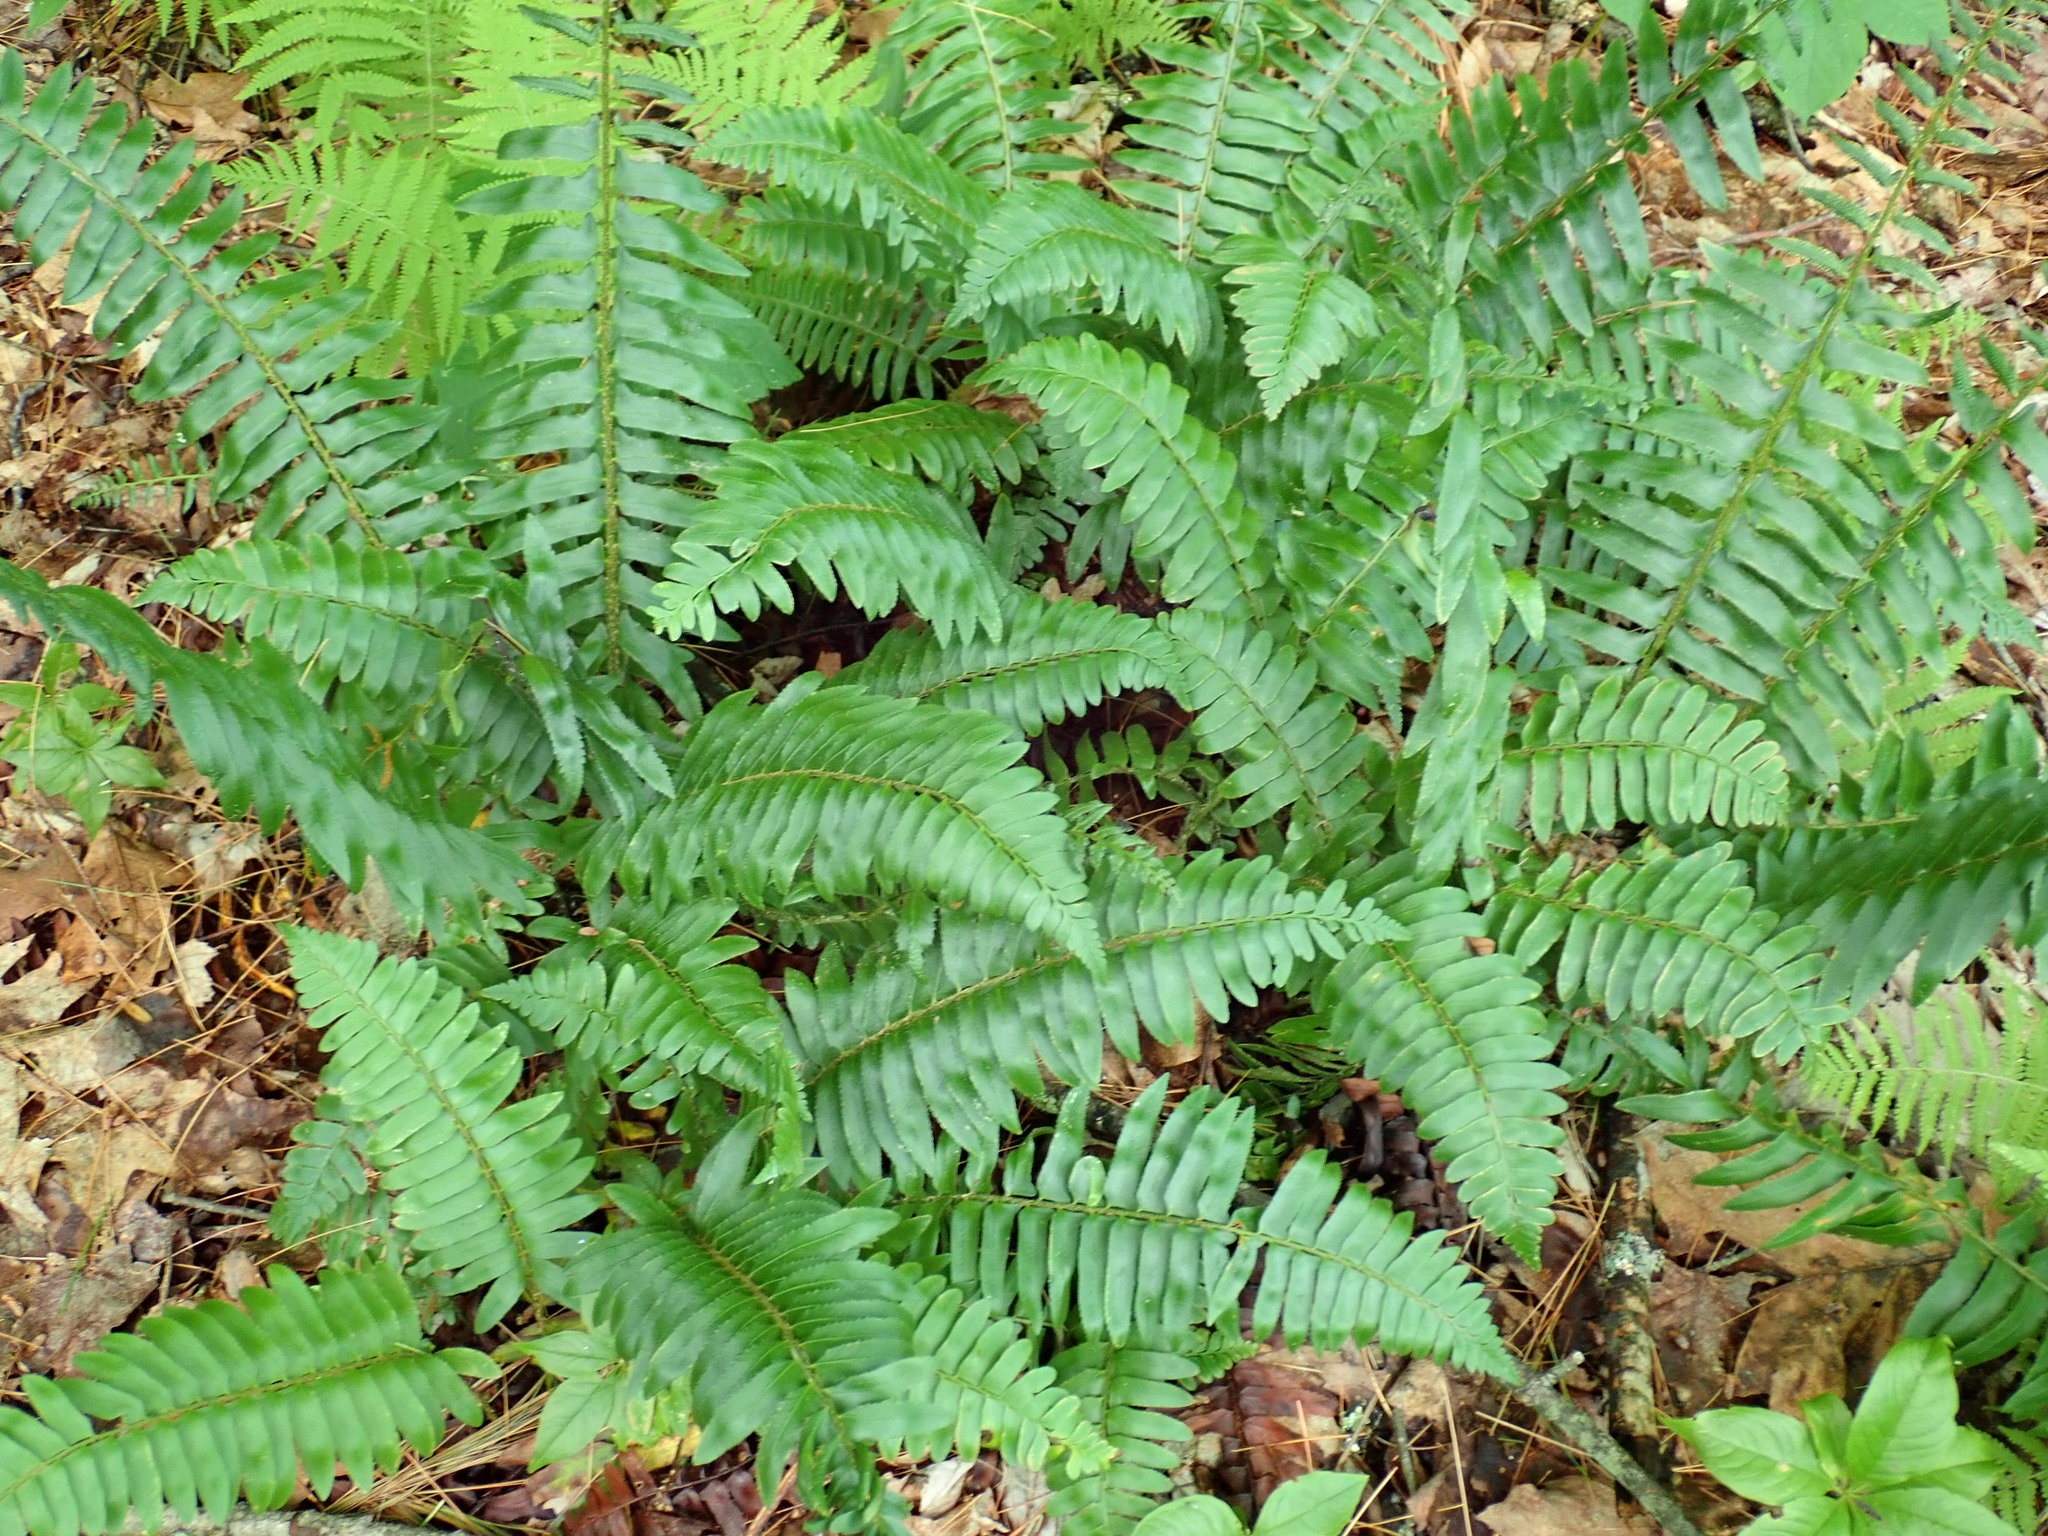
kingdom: Plantae
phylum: Tracheophyta
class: Polypodiopsida
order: Polypodiales
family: Dryopteridaceae
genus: Polystichum
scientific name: Polystichum acrostichoides
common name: Christmas fern
